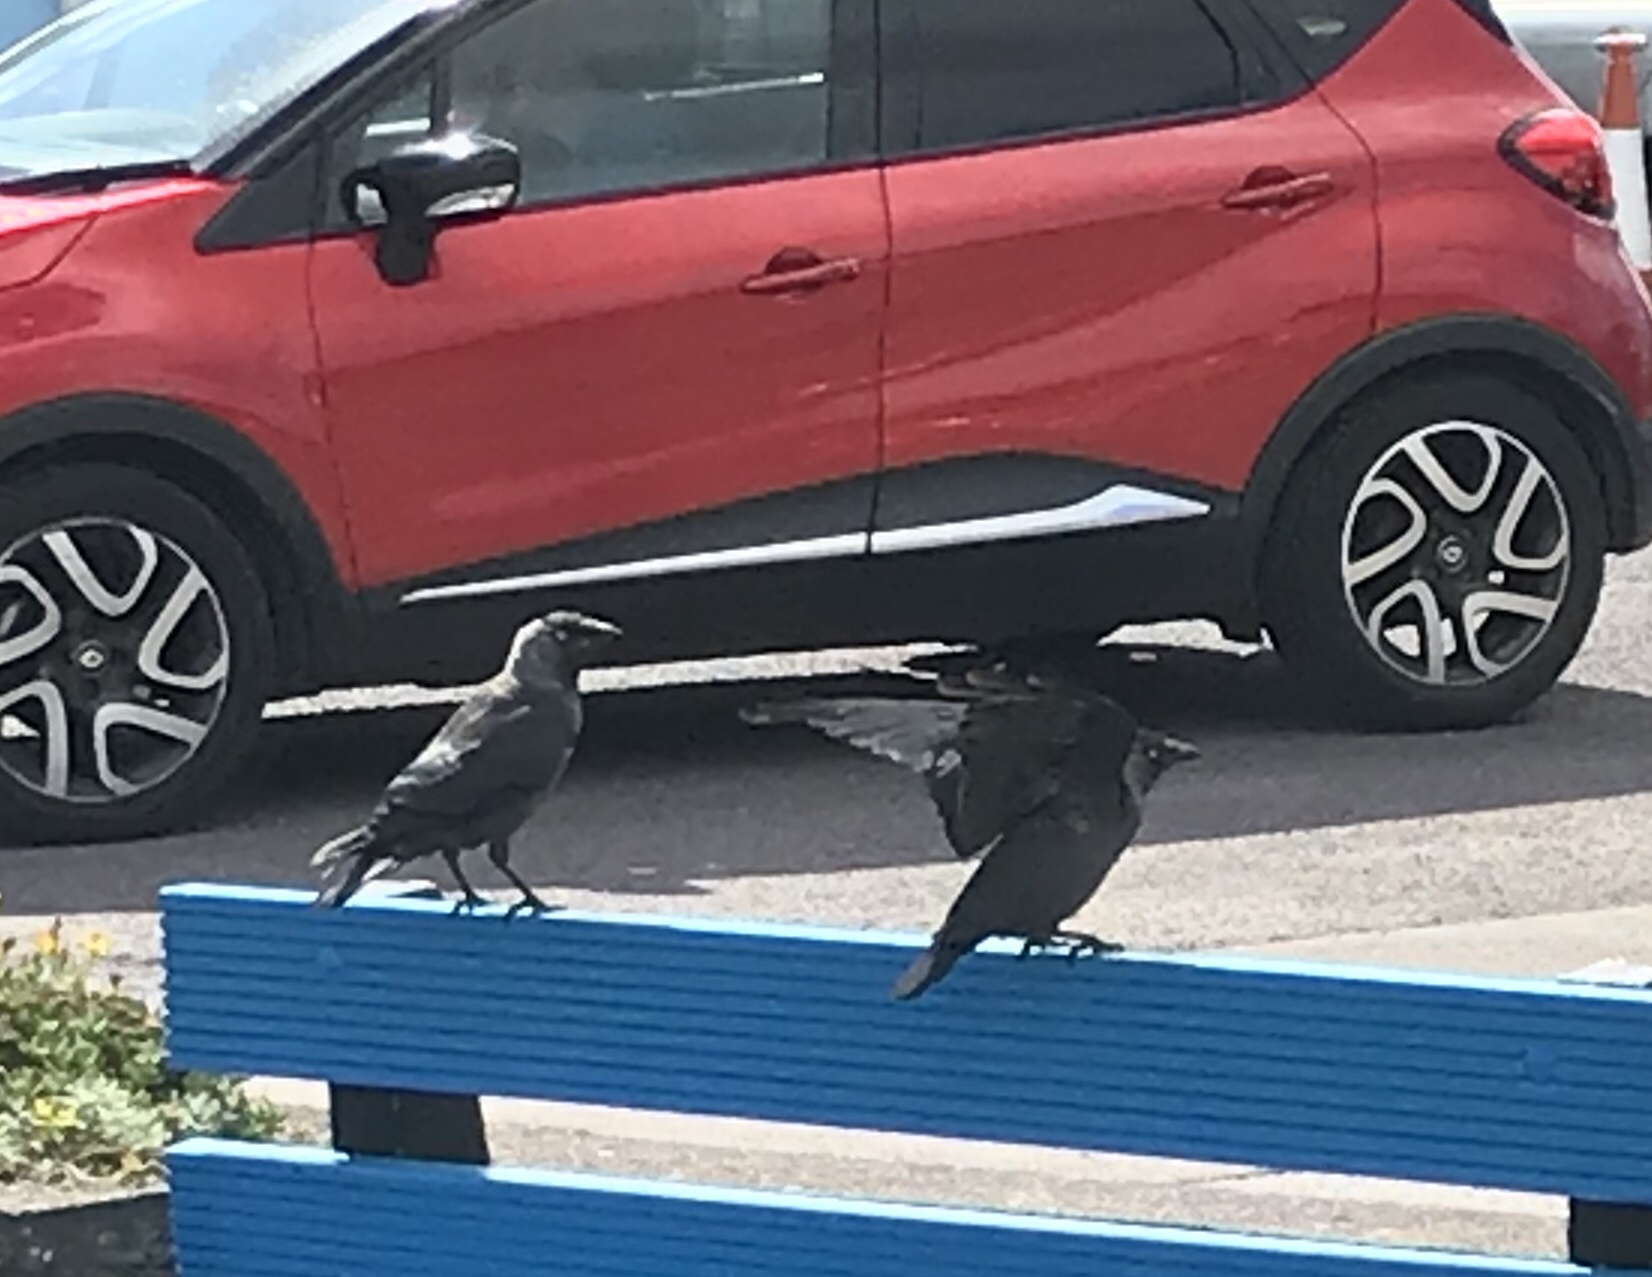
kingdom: Animalia
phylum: Chordata
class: Aves
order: Passeriformes
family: Corvidae
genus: Coloeus
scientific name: Coloeus monedula
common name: Western jackdaw
